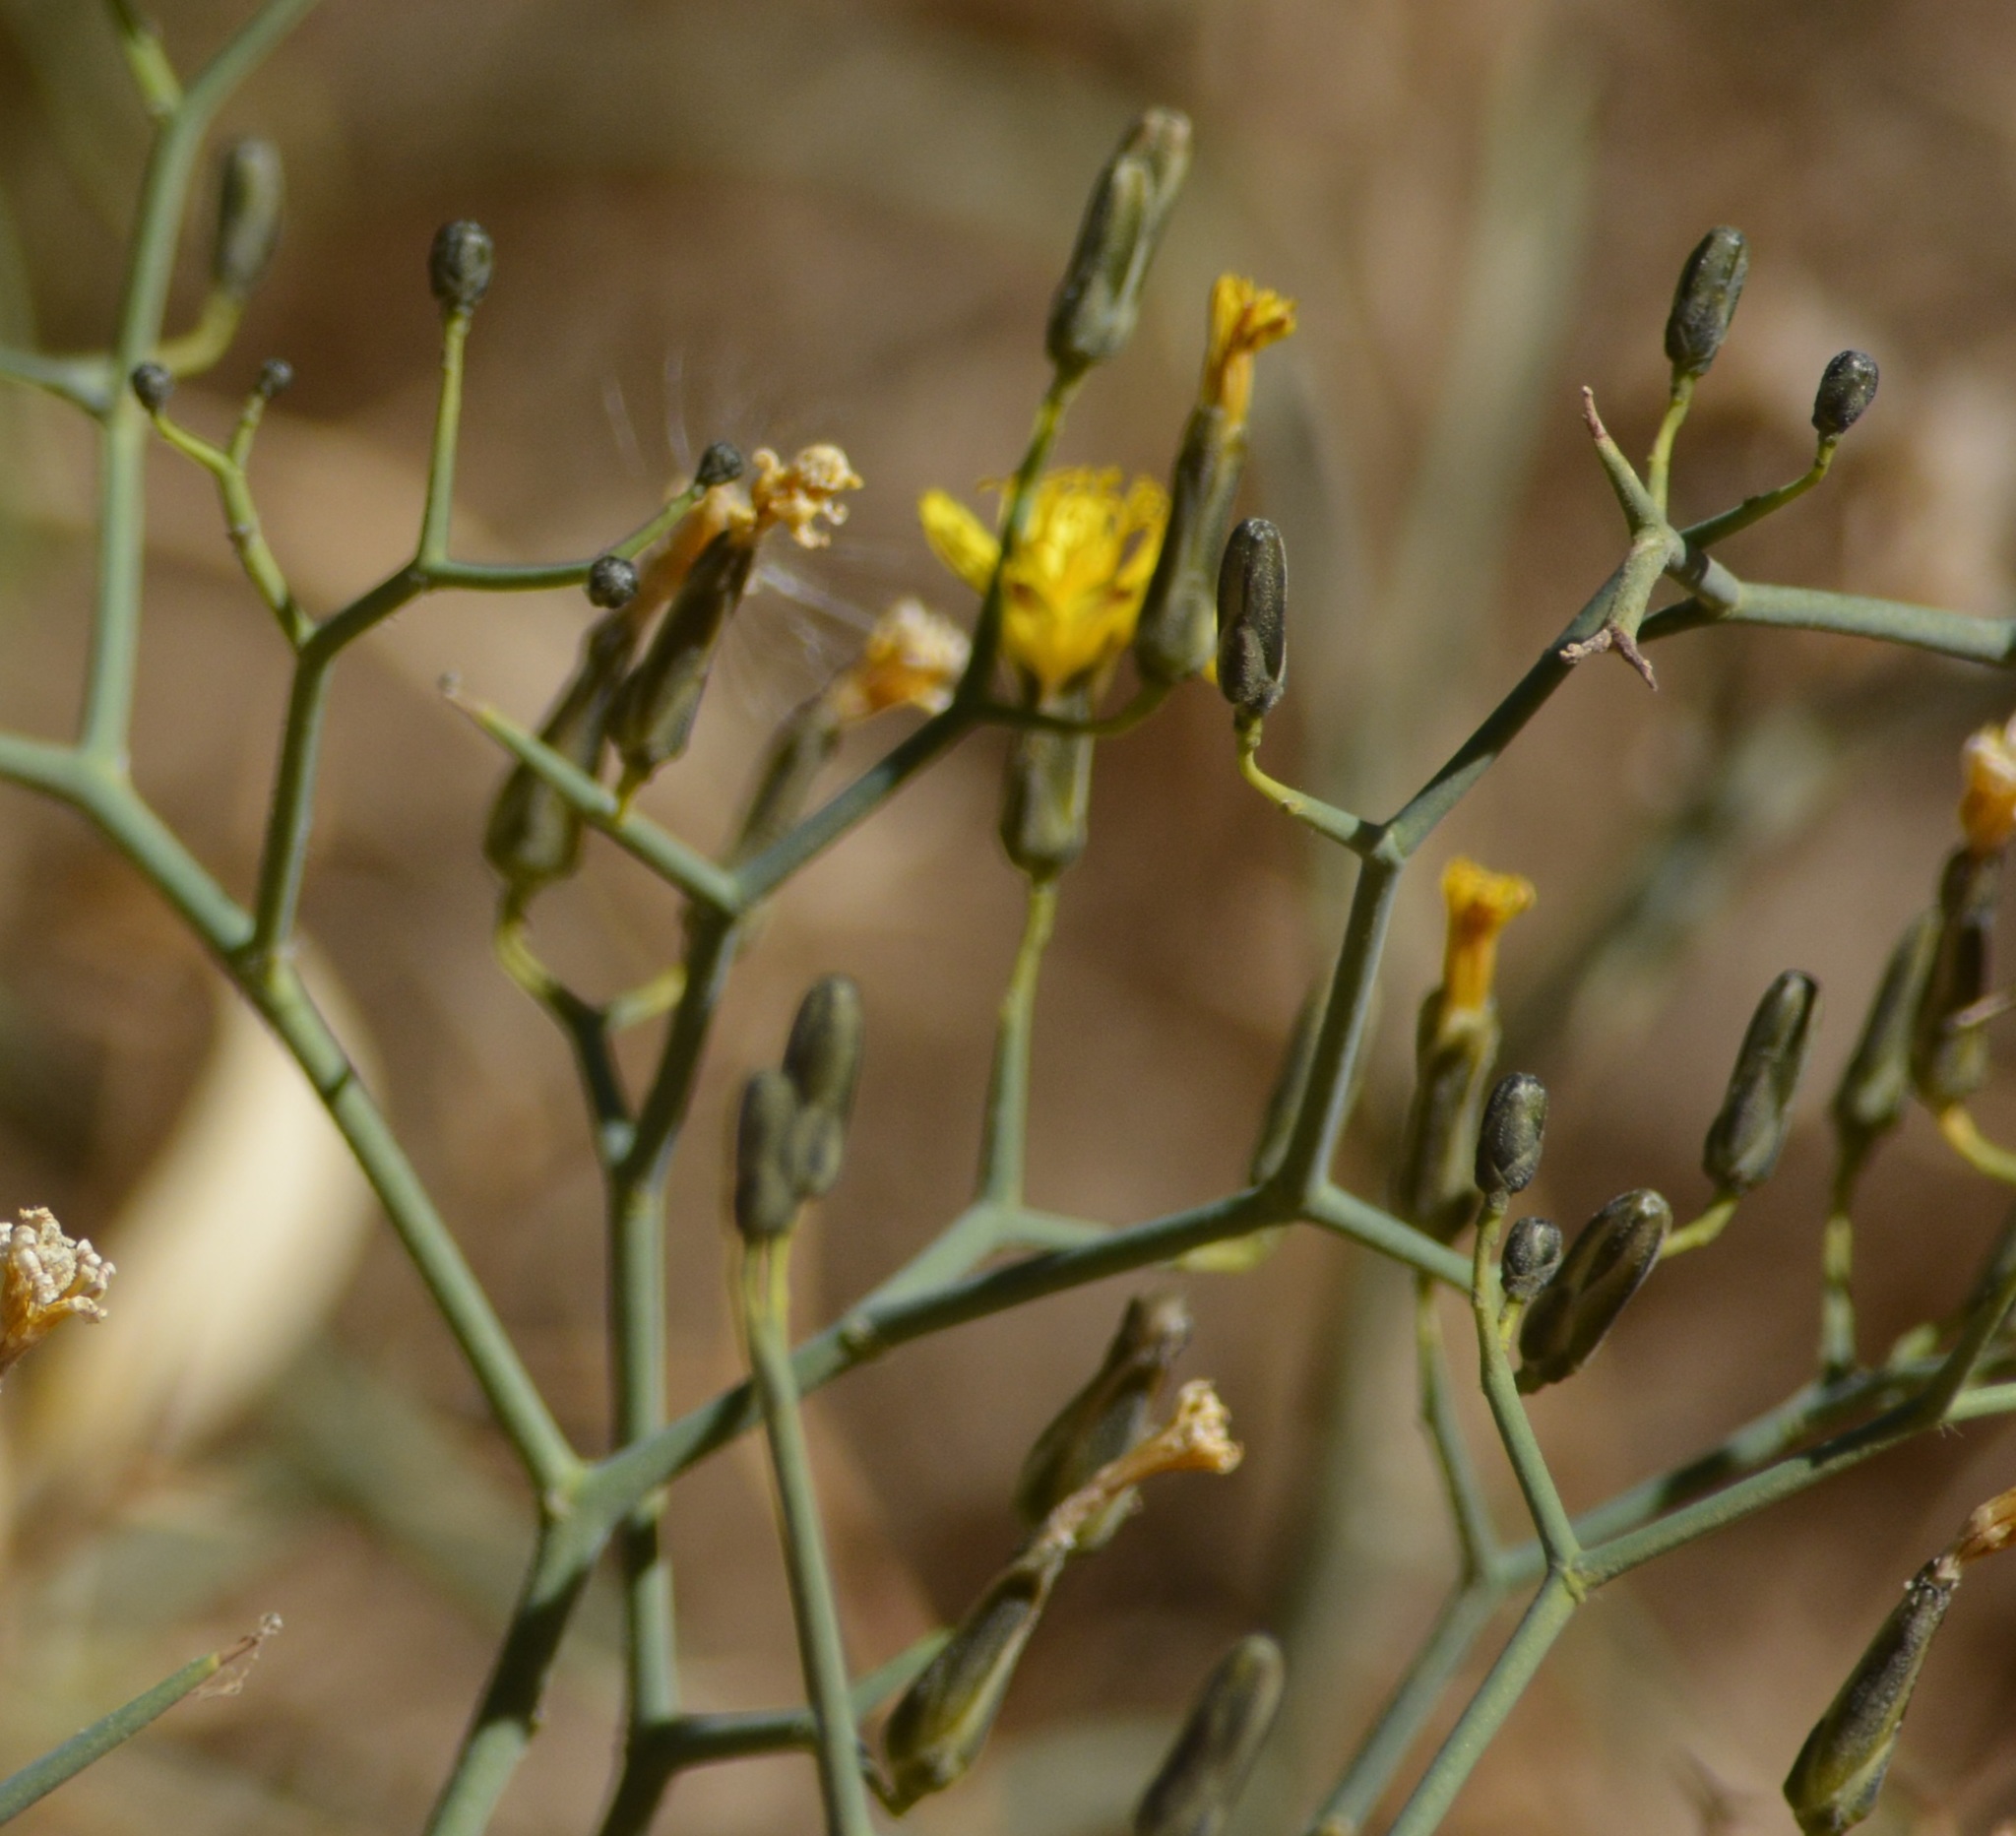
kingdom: Plantae
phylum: Tracheophyta
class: Magnoliopsida
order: Asterales
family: Asteraceae
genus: Launaea
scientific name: Launaea arborescens
